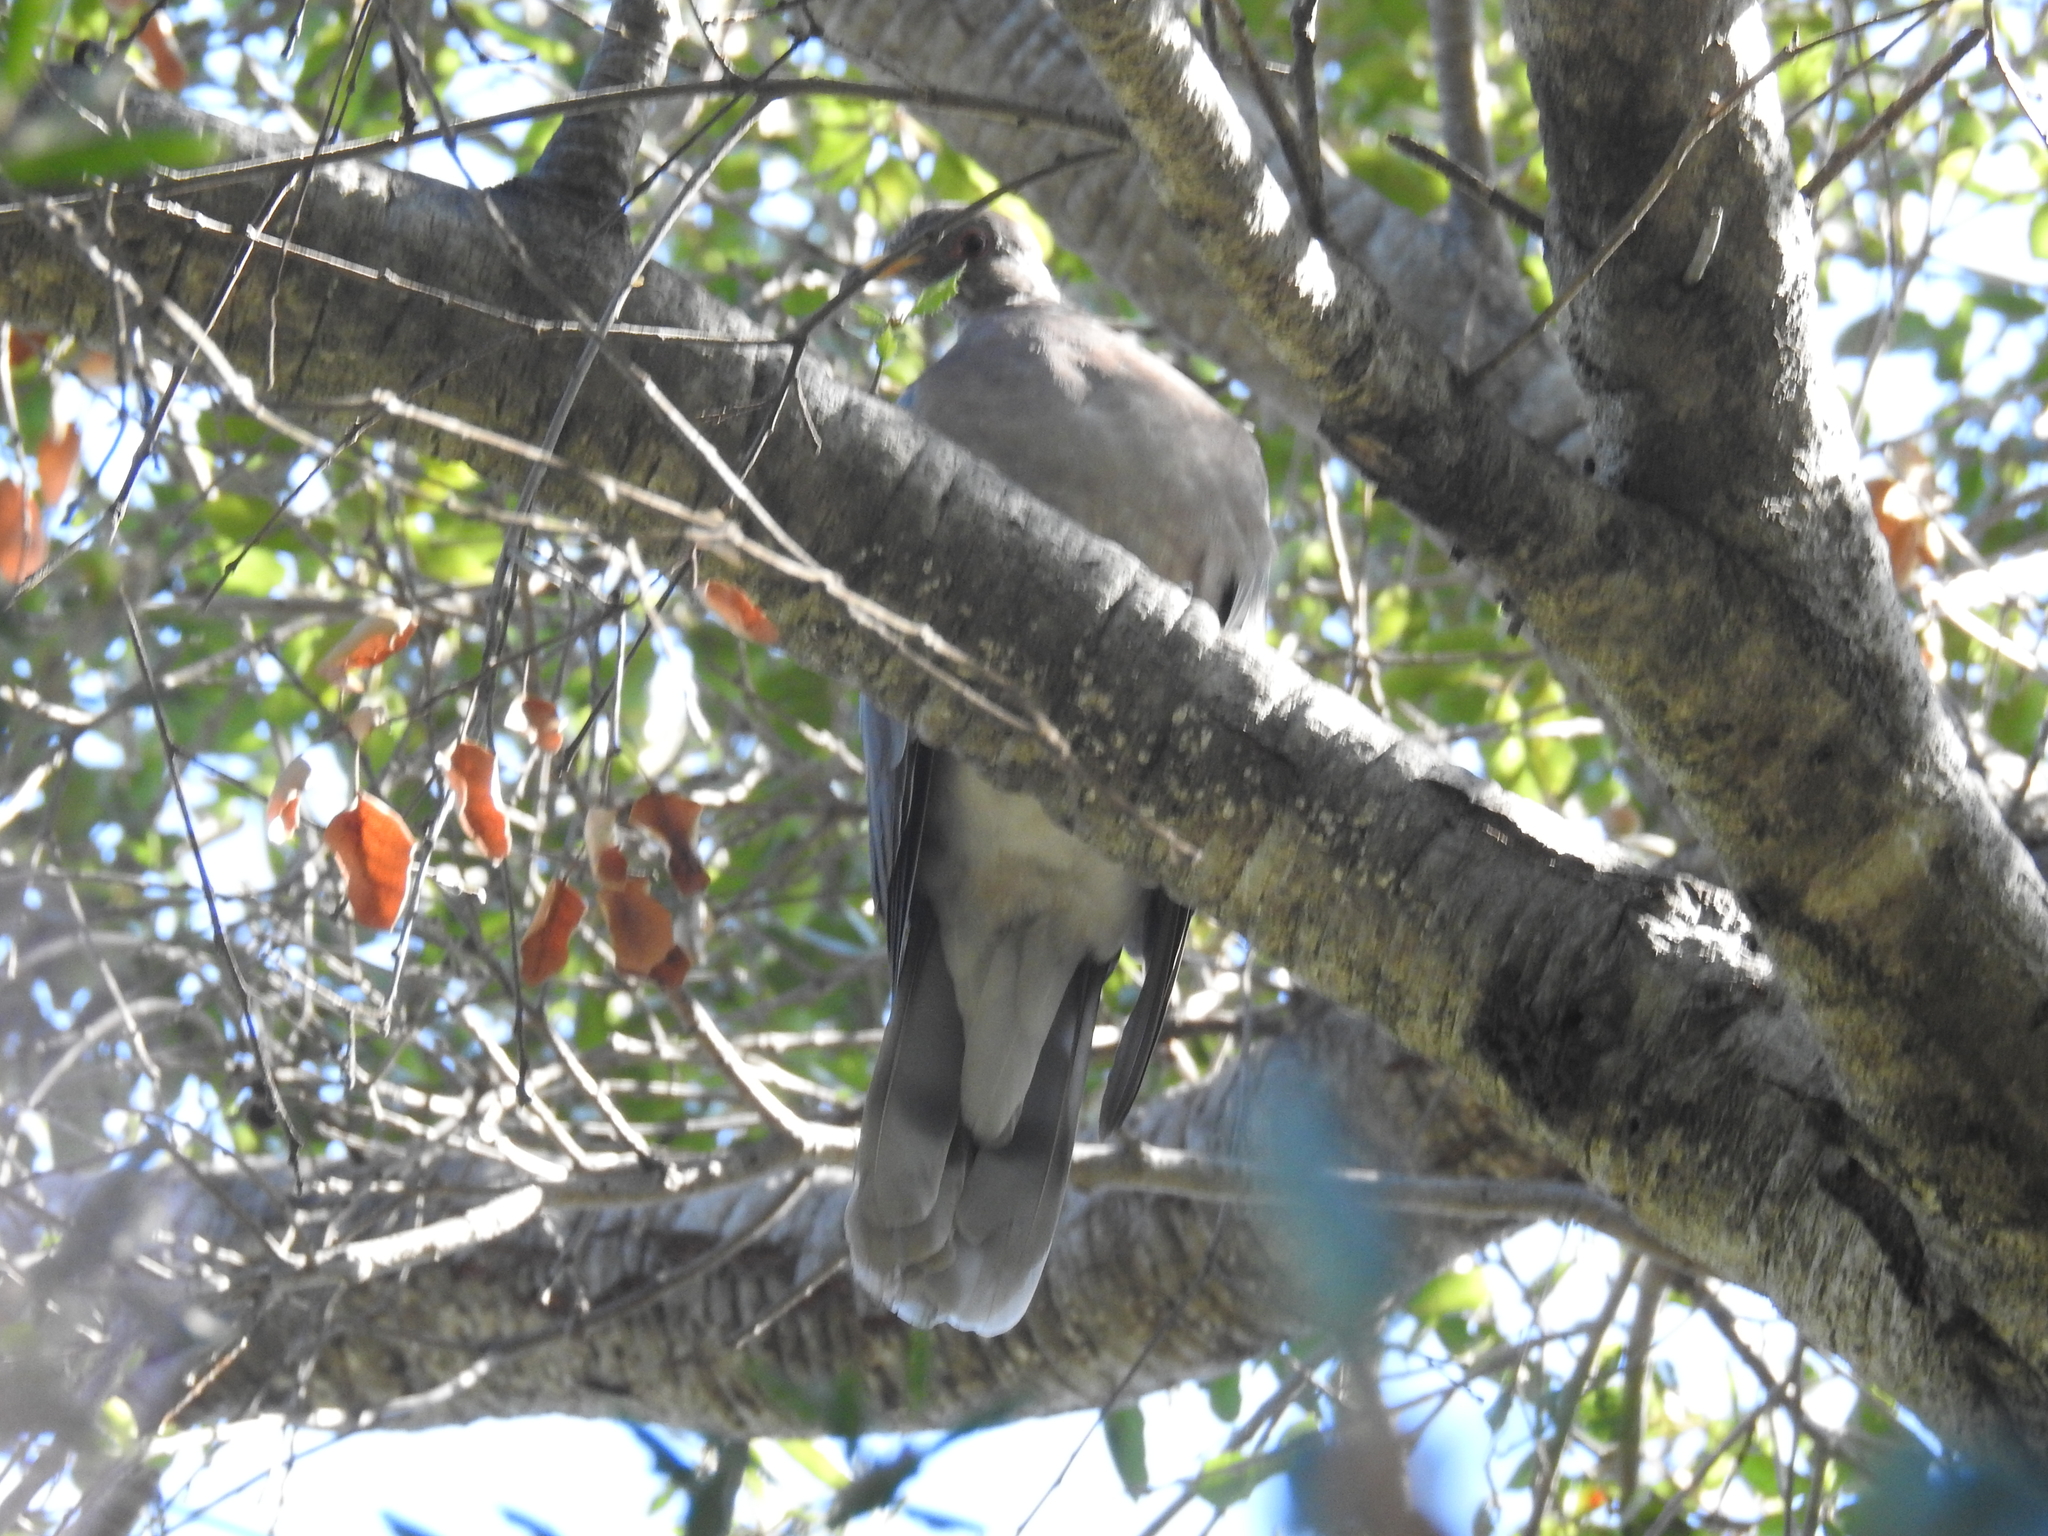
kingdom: Animalia
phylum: Chordata
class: Aves
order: Columbiformes
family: Columbidae
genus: Patagioenas
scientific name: Patagioenas fasciata
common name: Band-tailed pigeon
